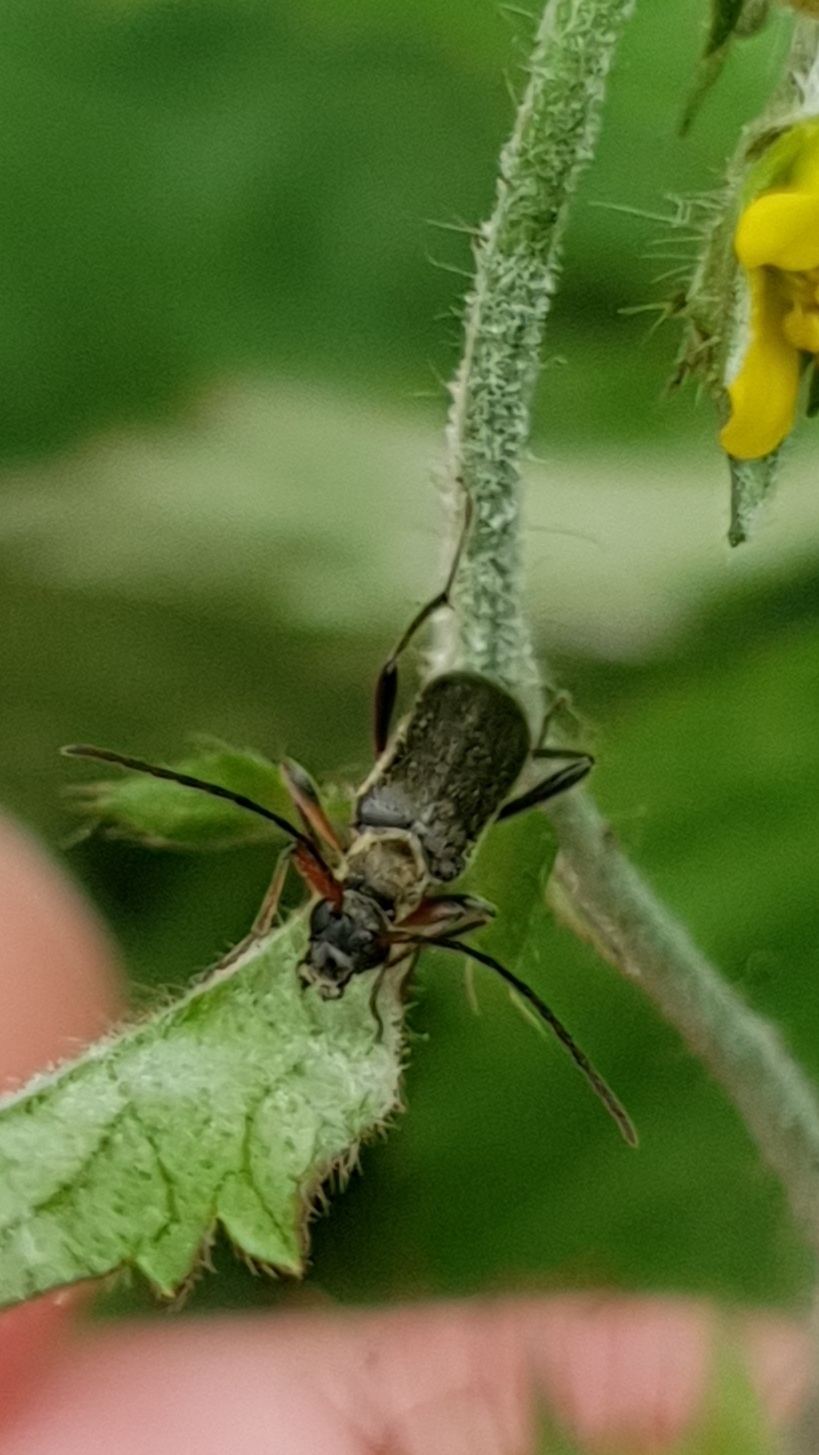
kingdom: Animalia
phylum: Arthropoda
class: Insecta
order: Coleoptera
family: Cerambycidae
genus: Grammoptera
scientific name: Grammoptera ruficornis
